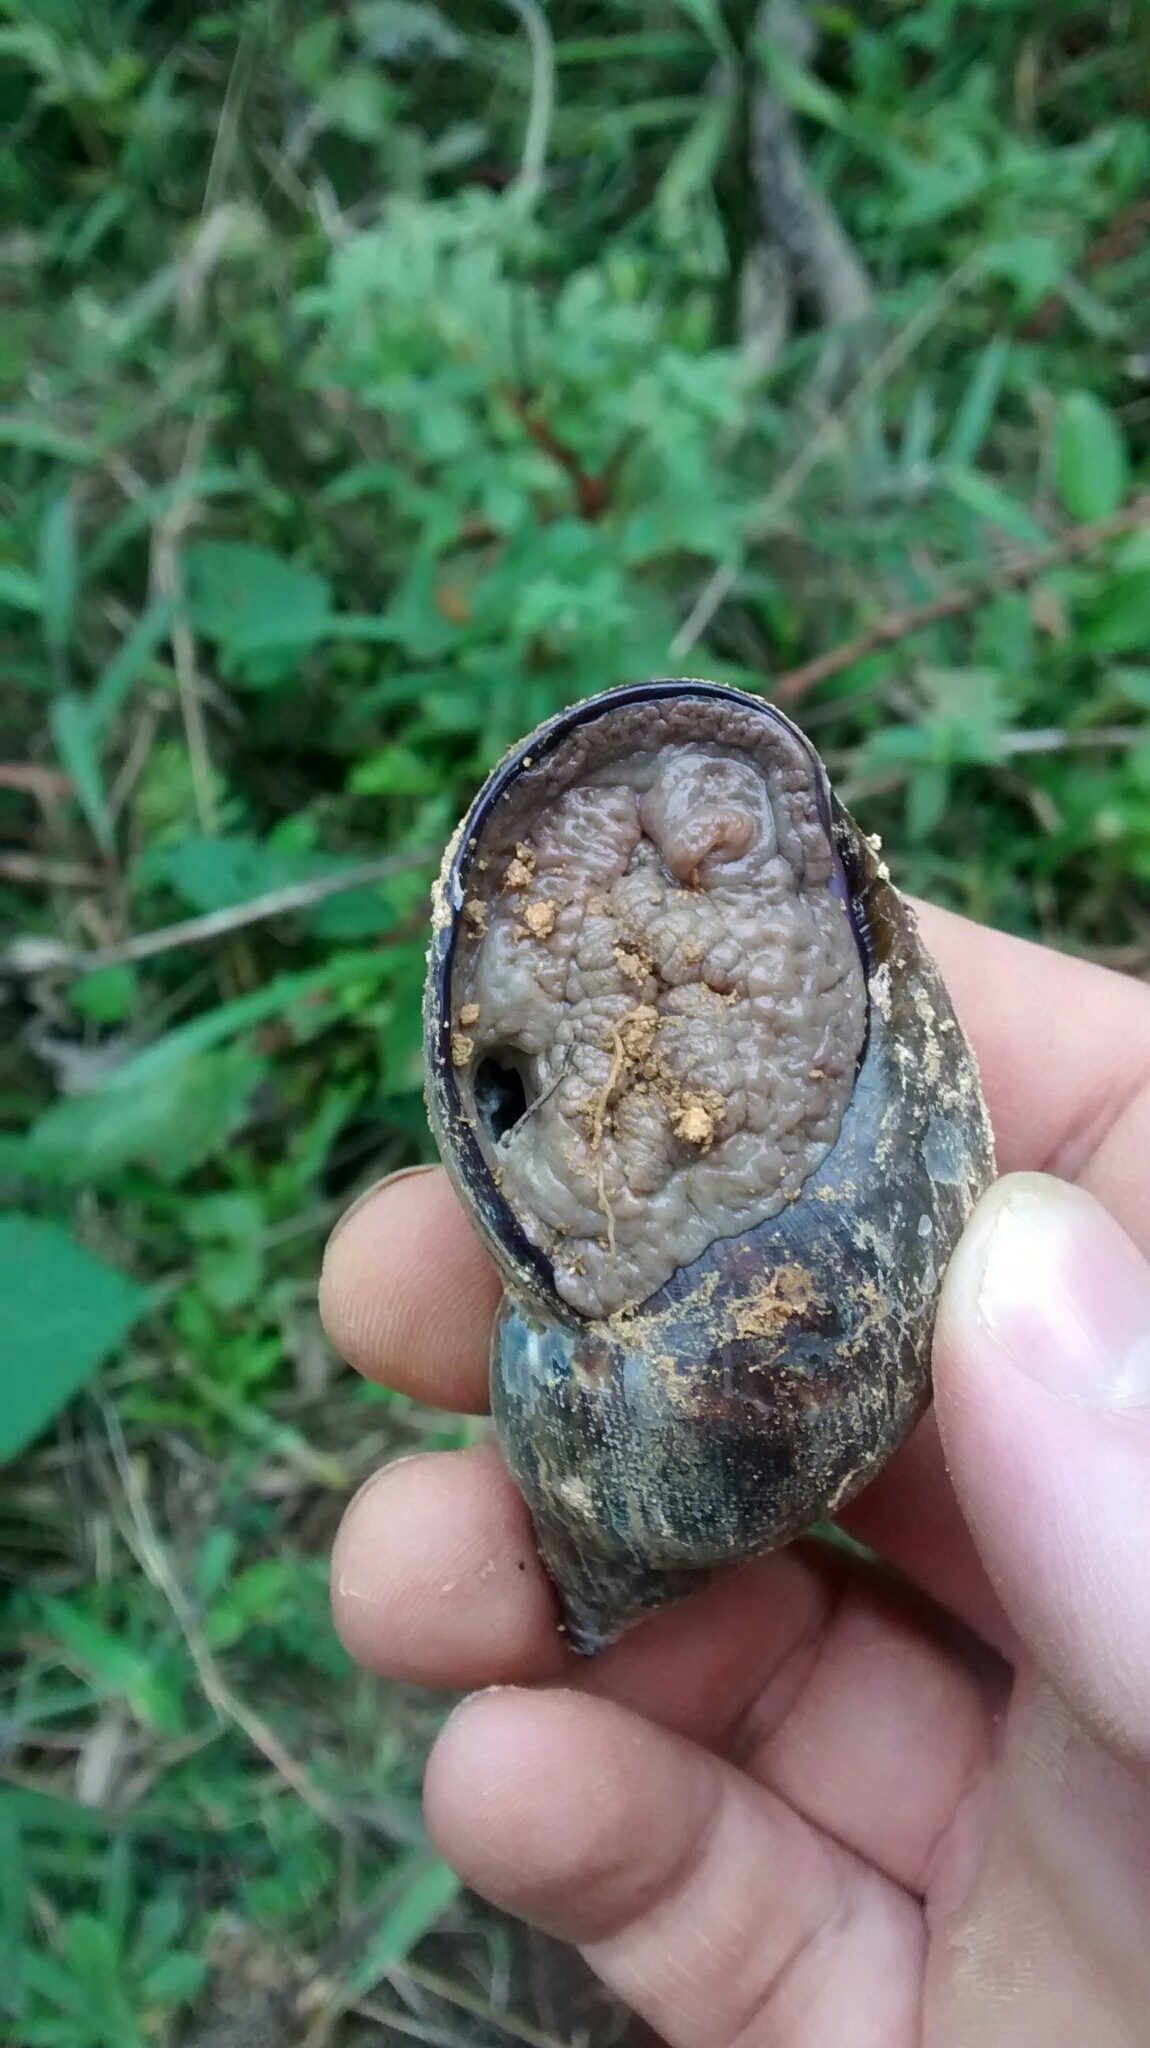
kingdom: Animalia
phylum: Mollusca
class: Gastropoda
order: Stylommatophora
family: Orthalicidae
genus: Hemibulimus
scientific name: Hemibulimus dennisoni
